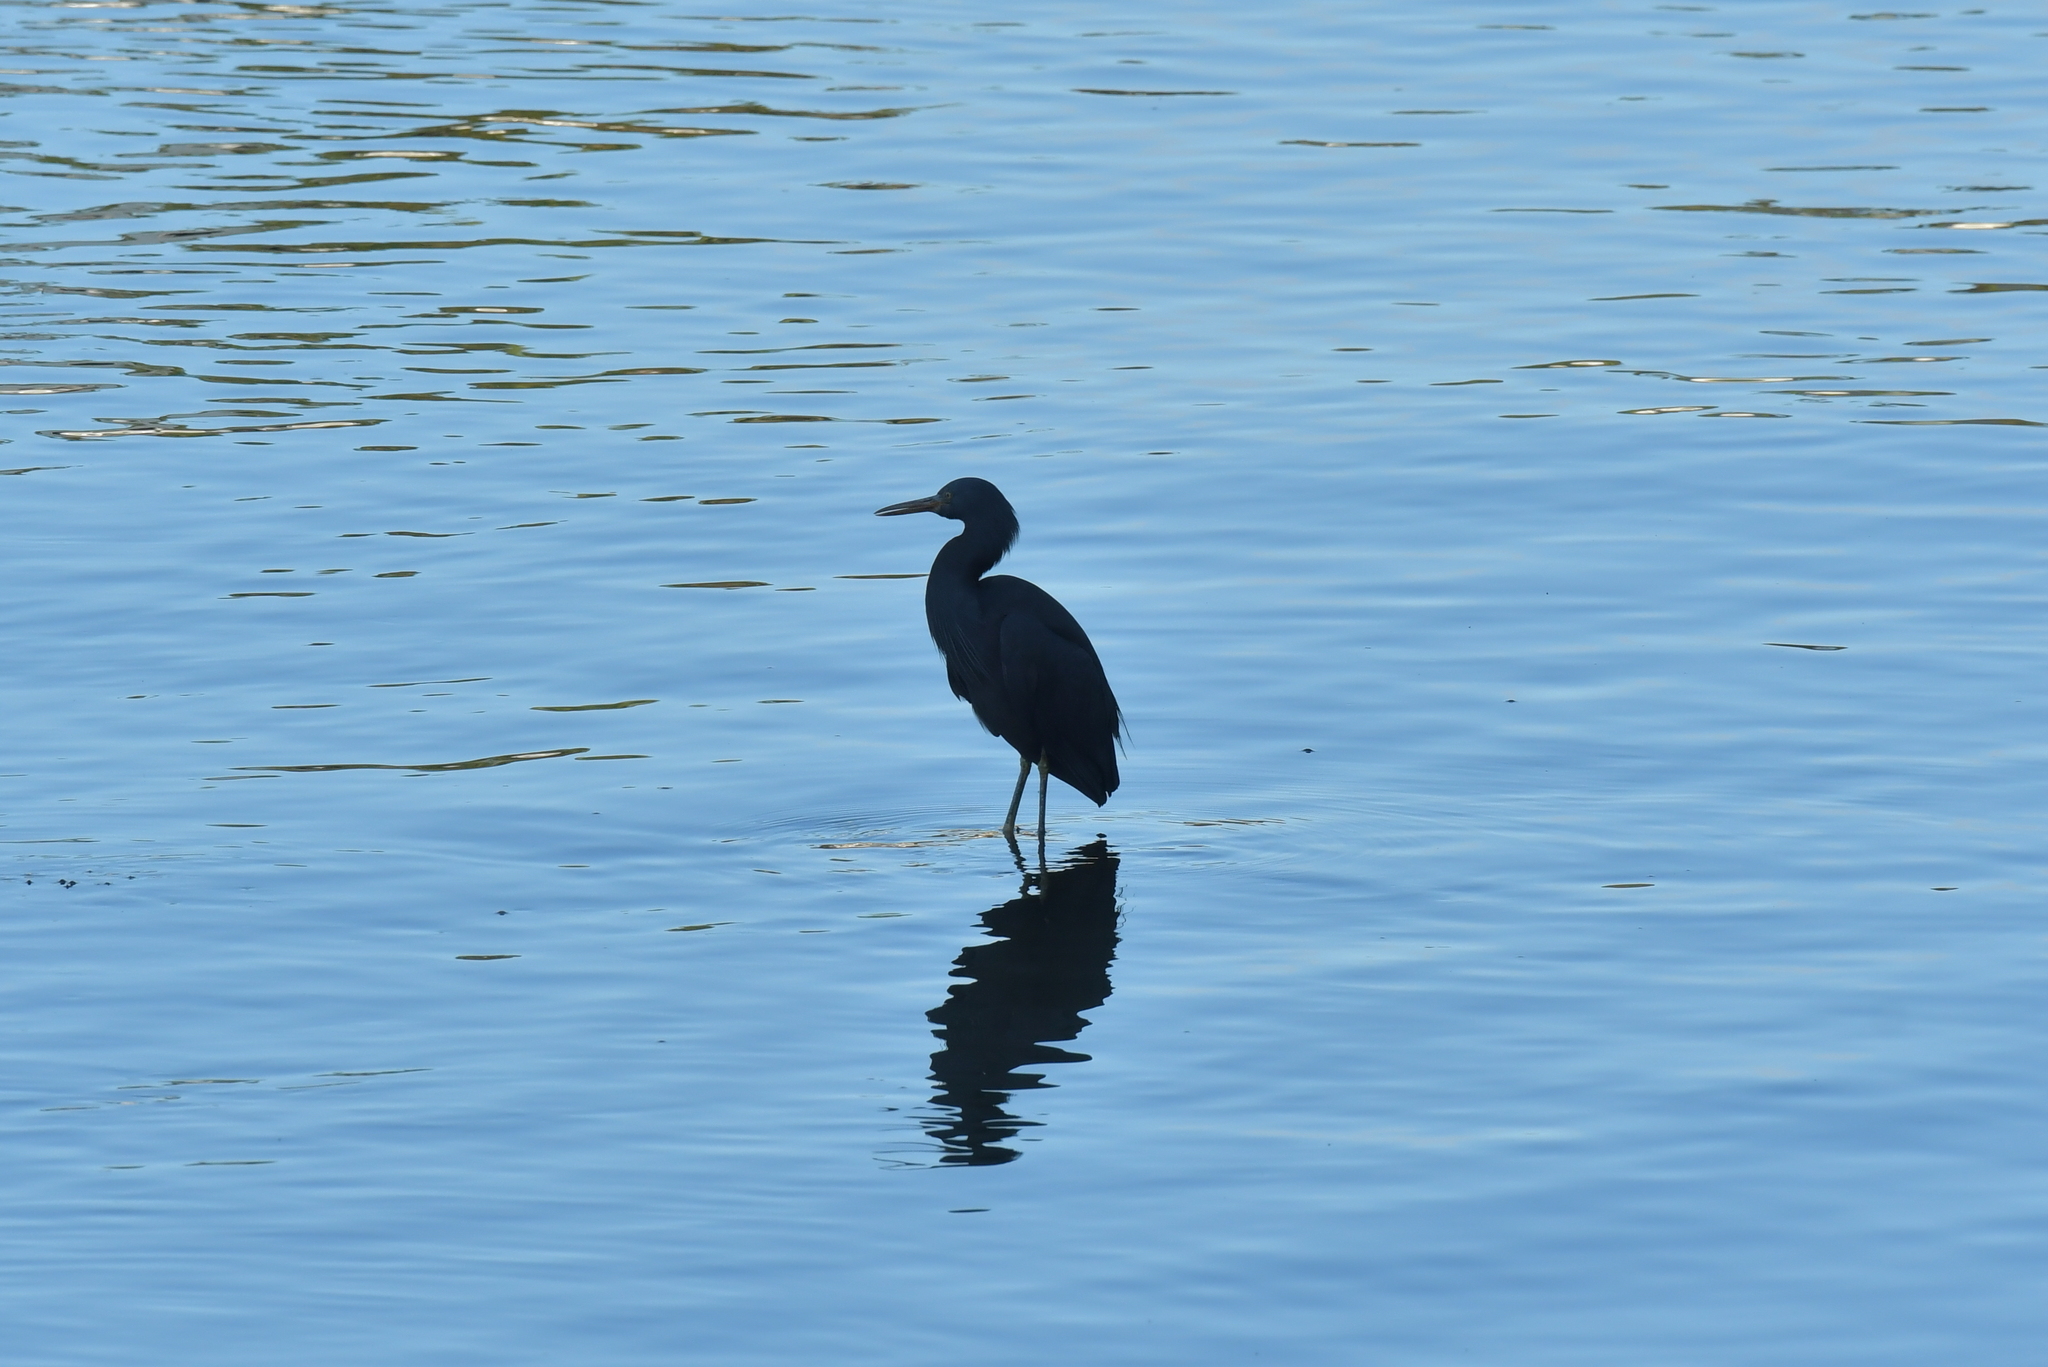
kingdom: Animalia
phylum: Chordata
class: Aves
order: Pelecaniformes
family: Ardeidae
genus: Egretta
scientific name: Egretta sacra
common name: Pacific reef heron
